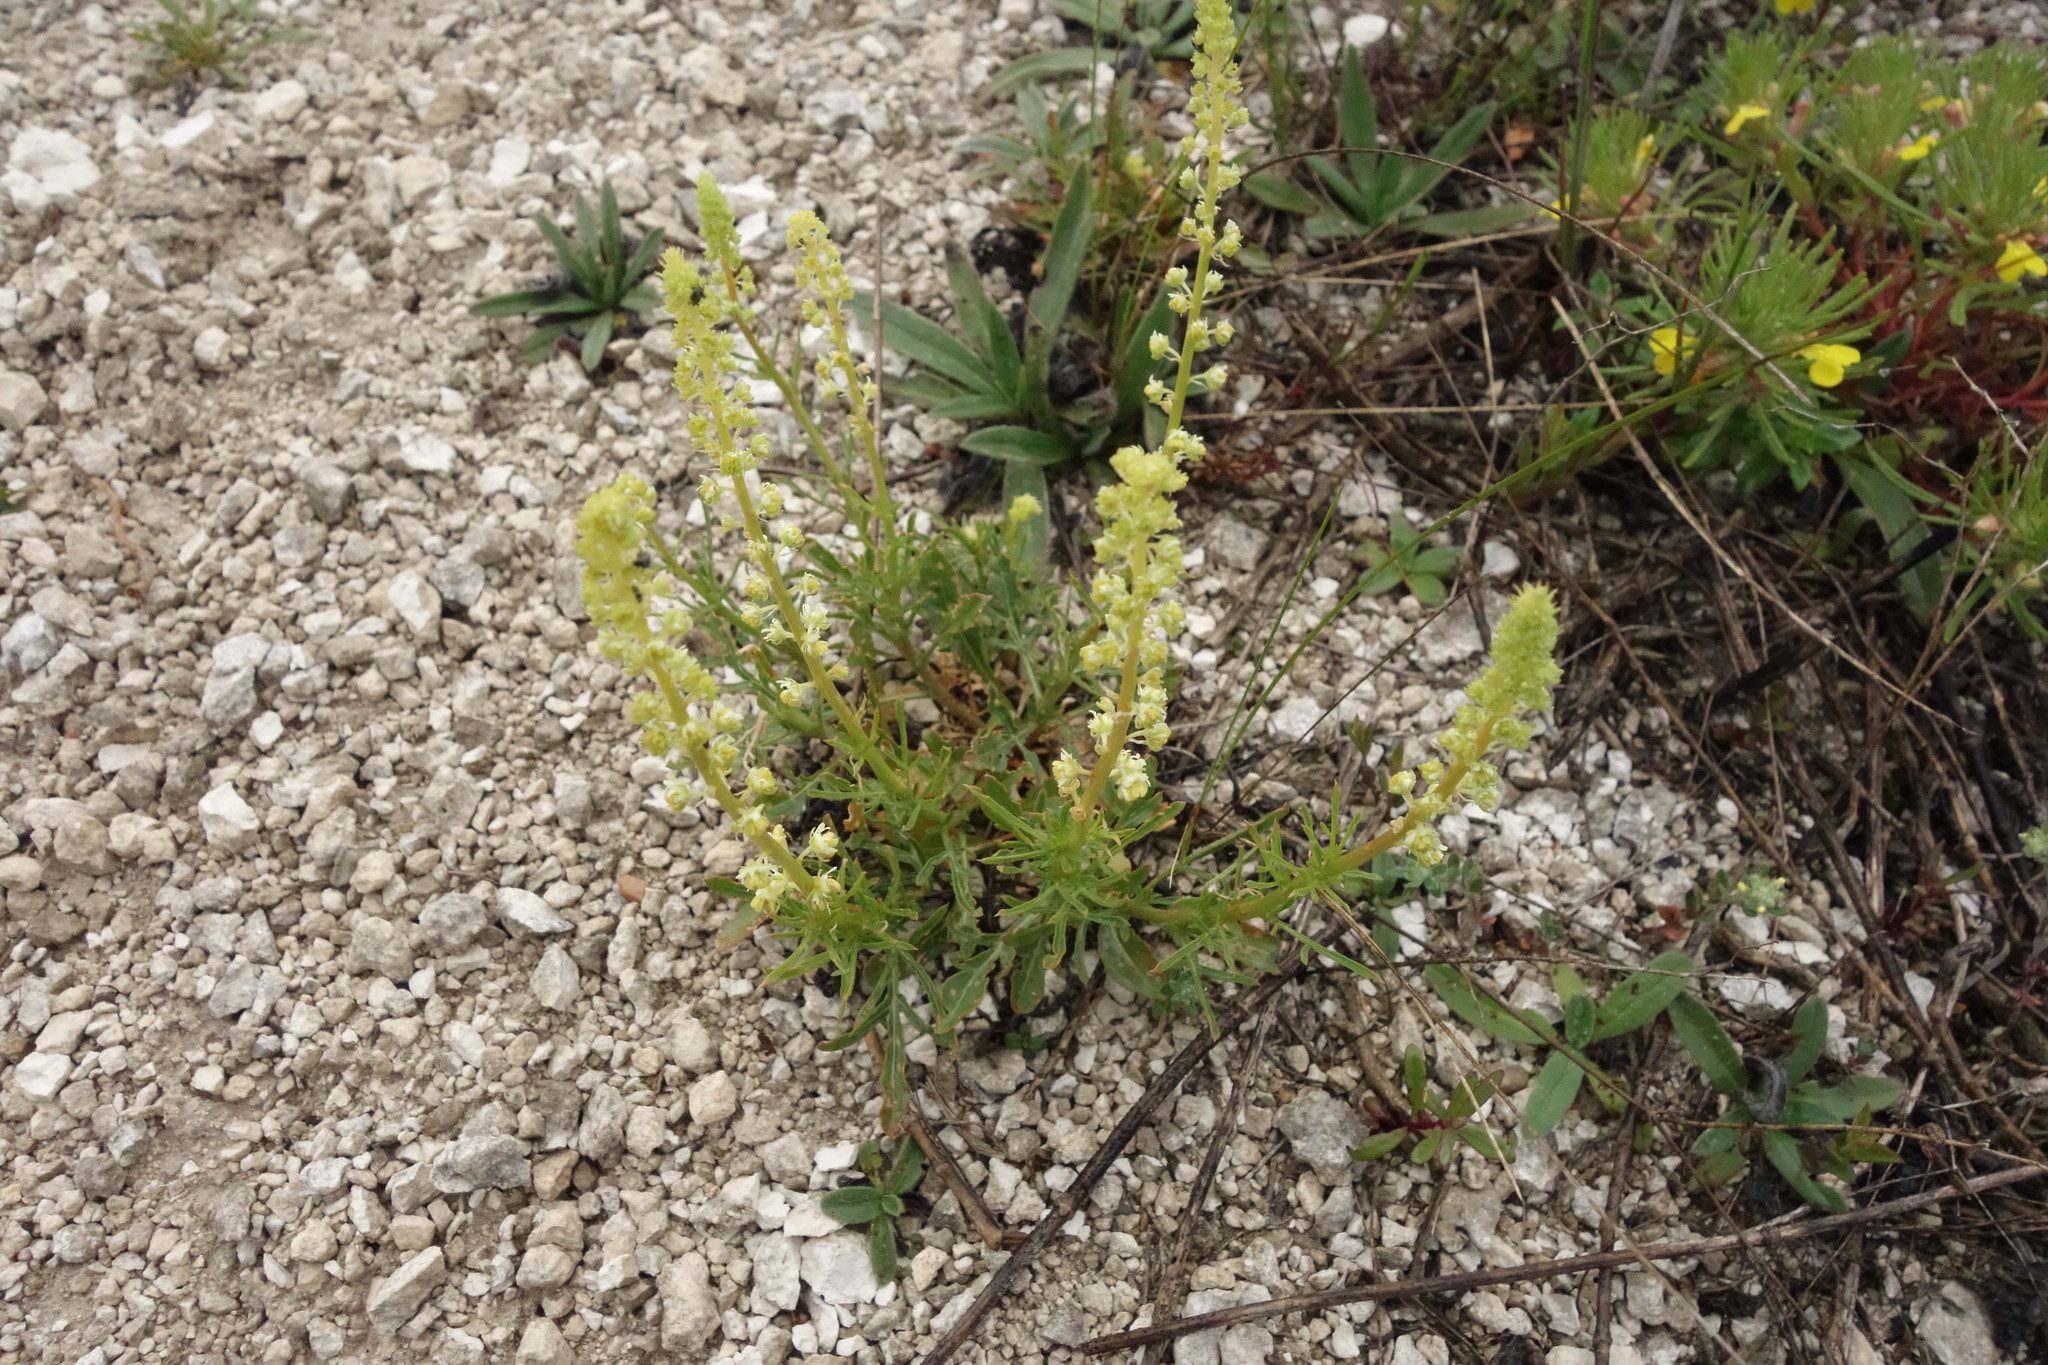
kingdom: Plantae
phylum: Tracheophyta
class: Magnoliopsida
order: Brassicales
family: Resedaceae
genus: Reseda
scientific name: Reseda lutea
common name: Wild mignonette
